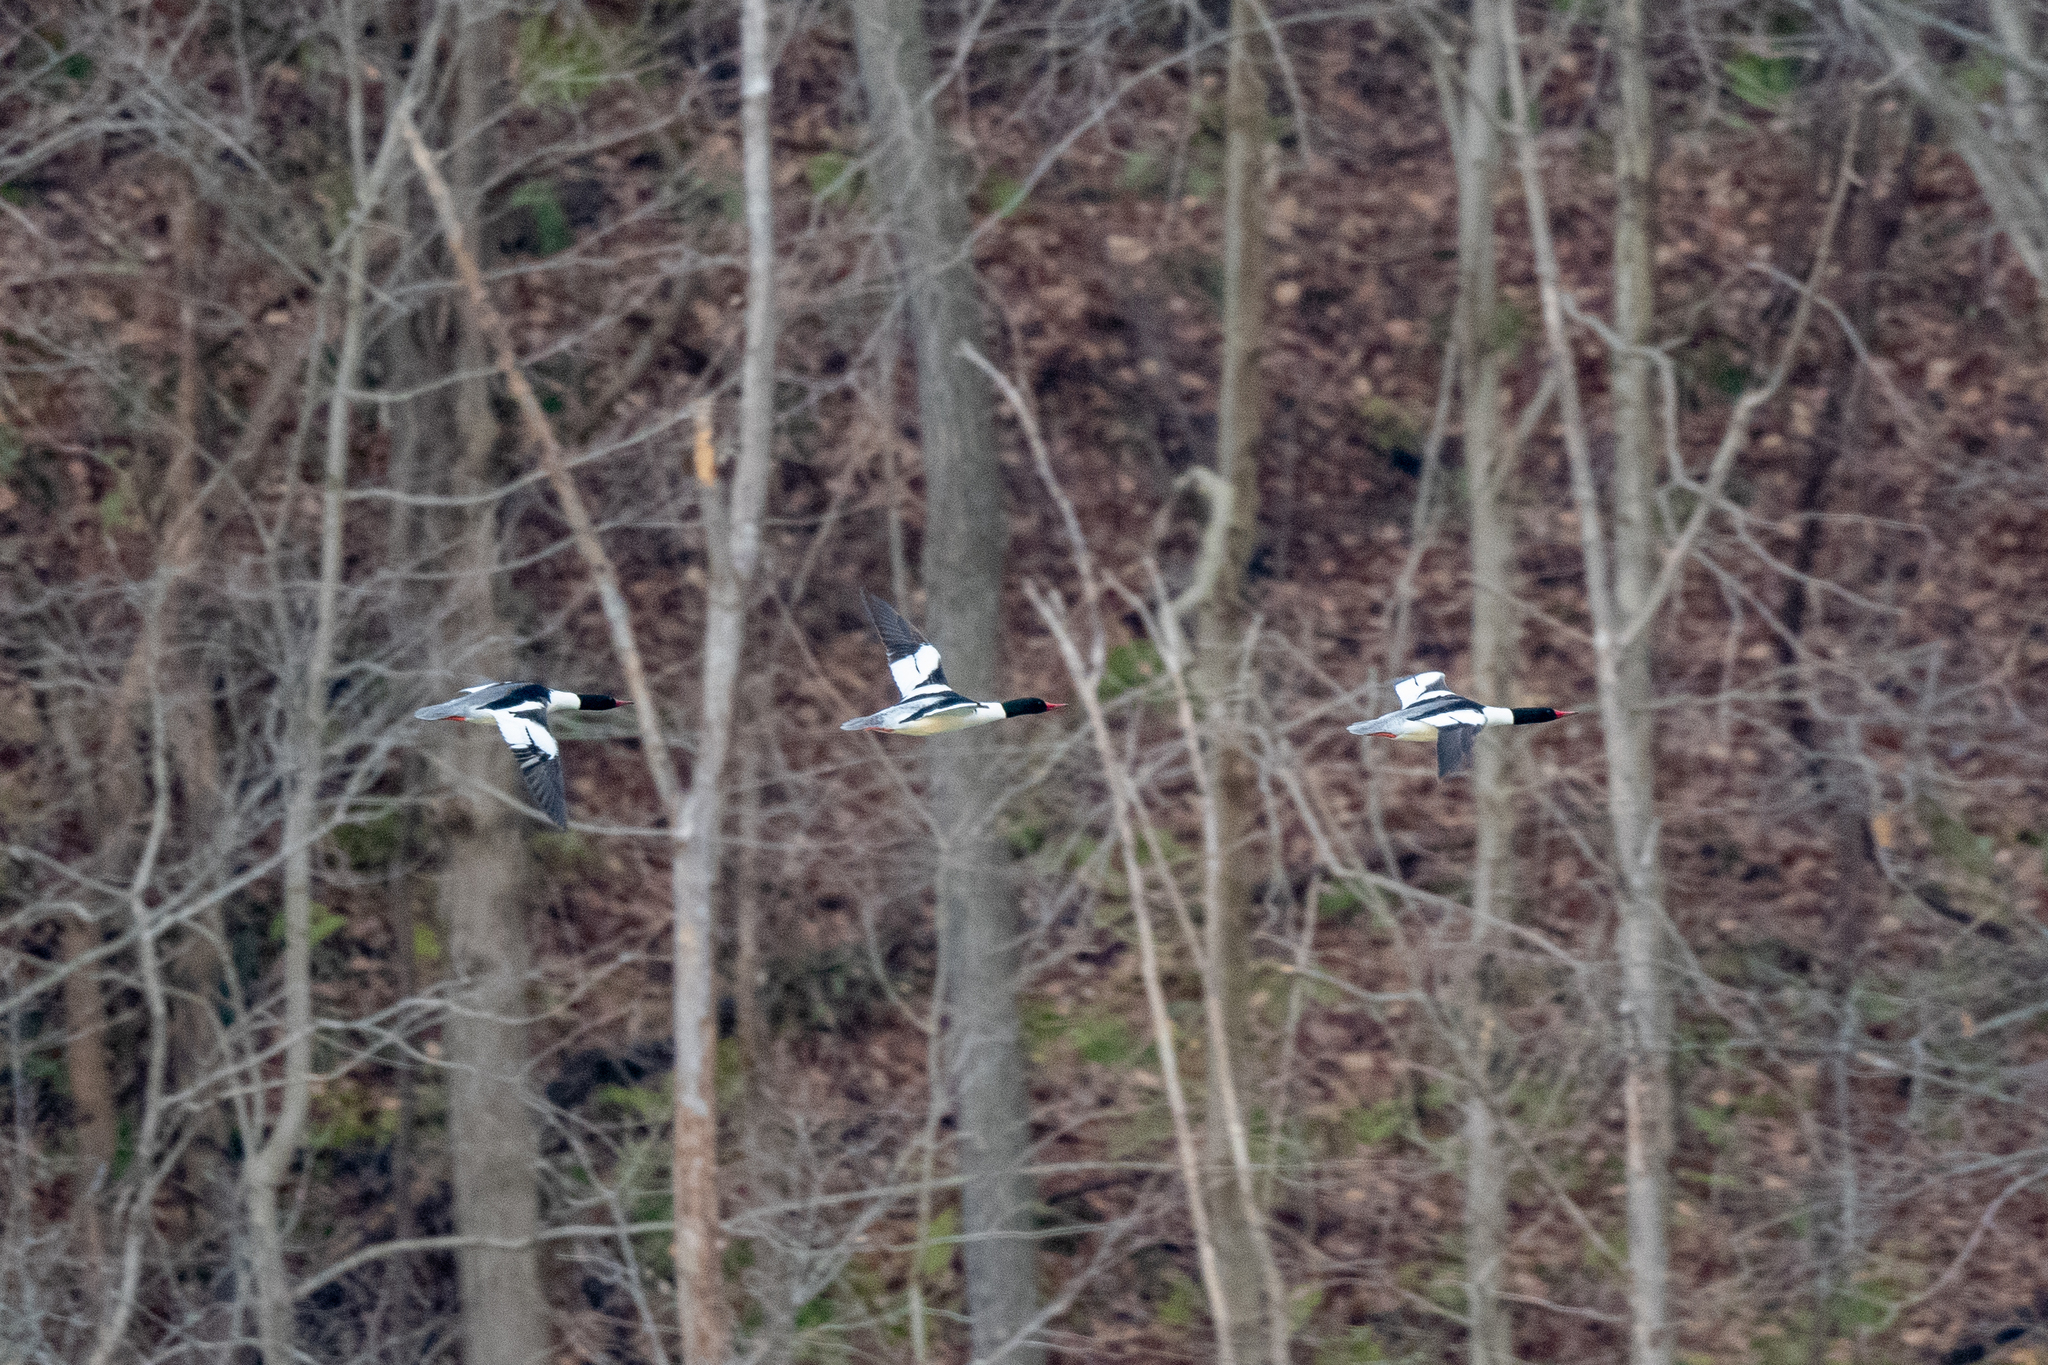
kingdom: Animalia
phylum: Chordata
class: Aves
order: Anseriformes
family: Anatidae
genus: Mergus
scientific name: Mergus merganser
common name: Common merganser
